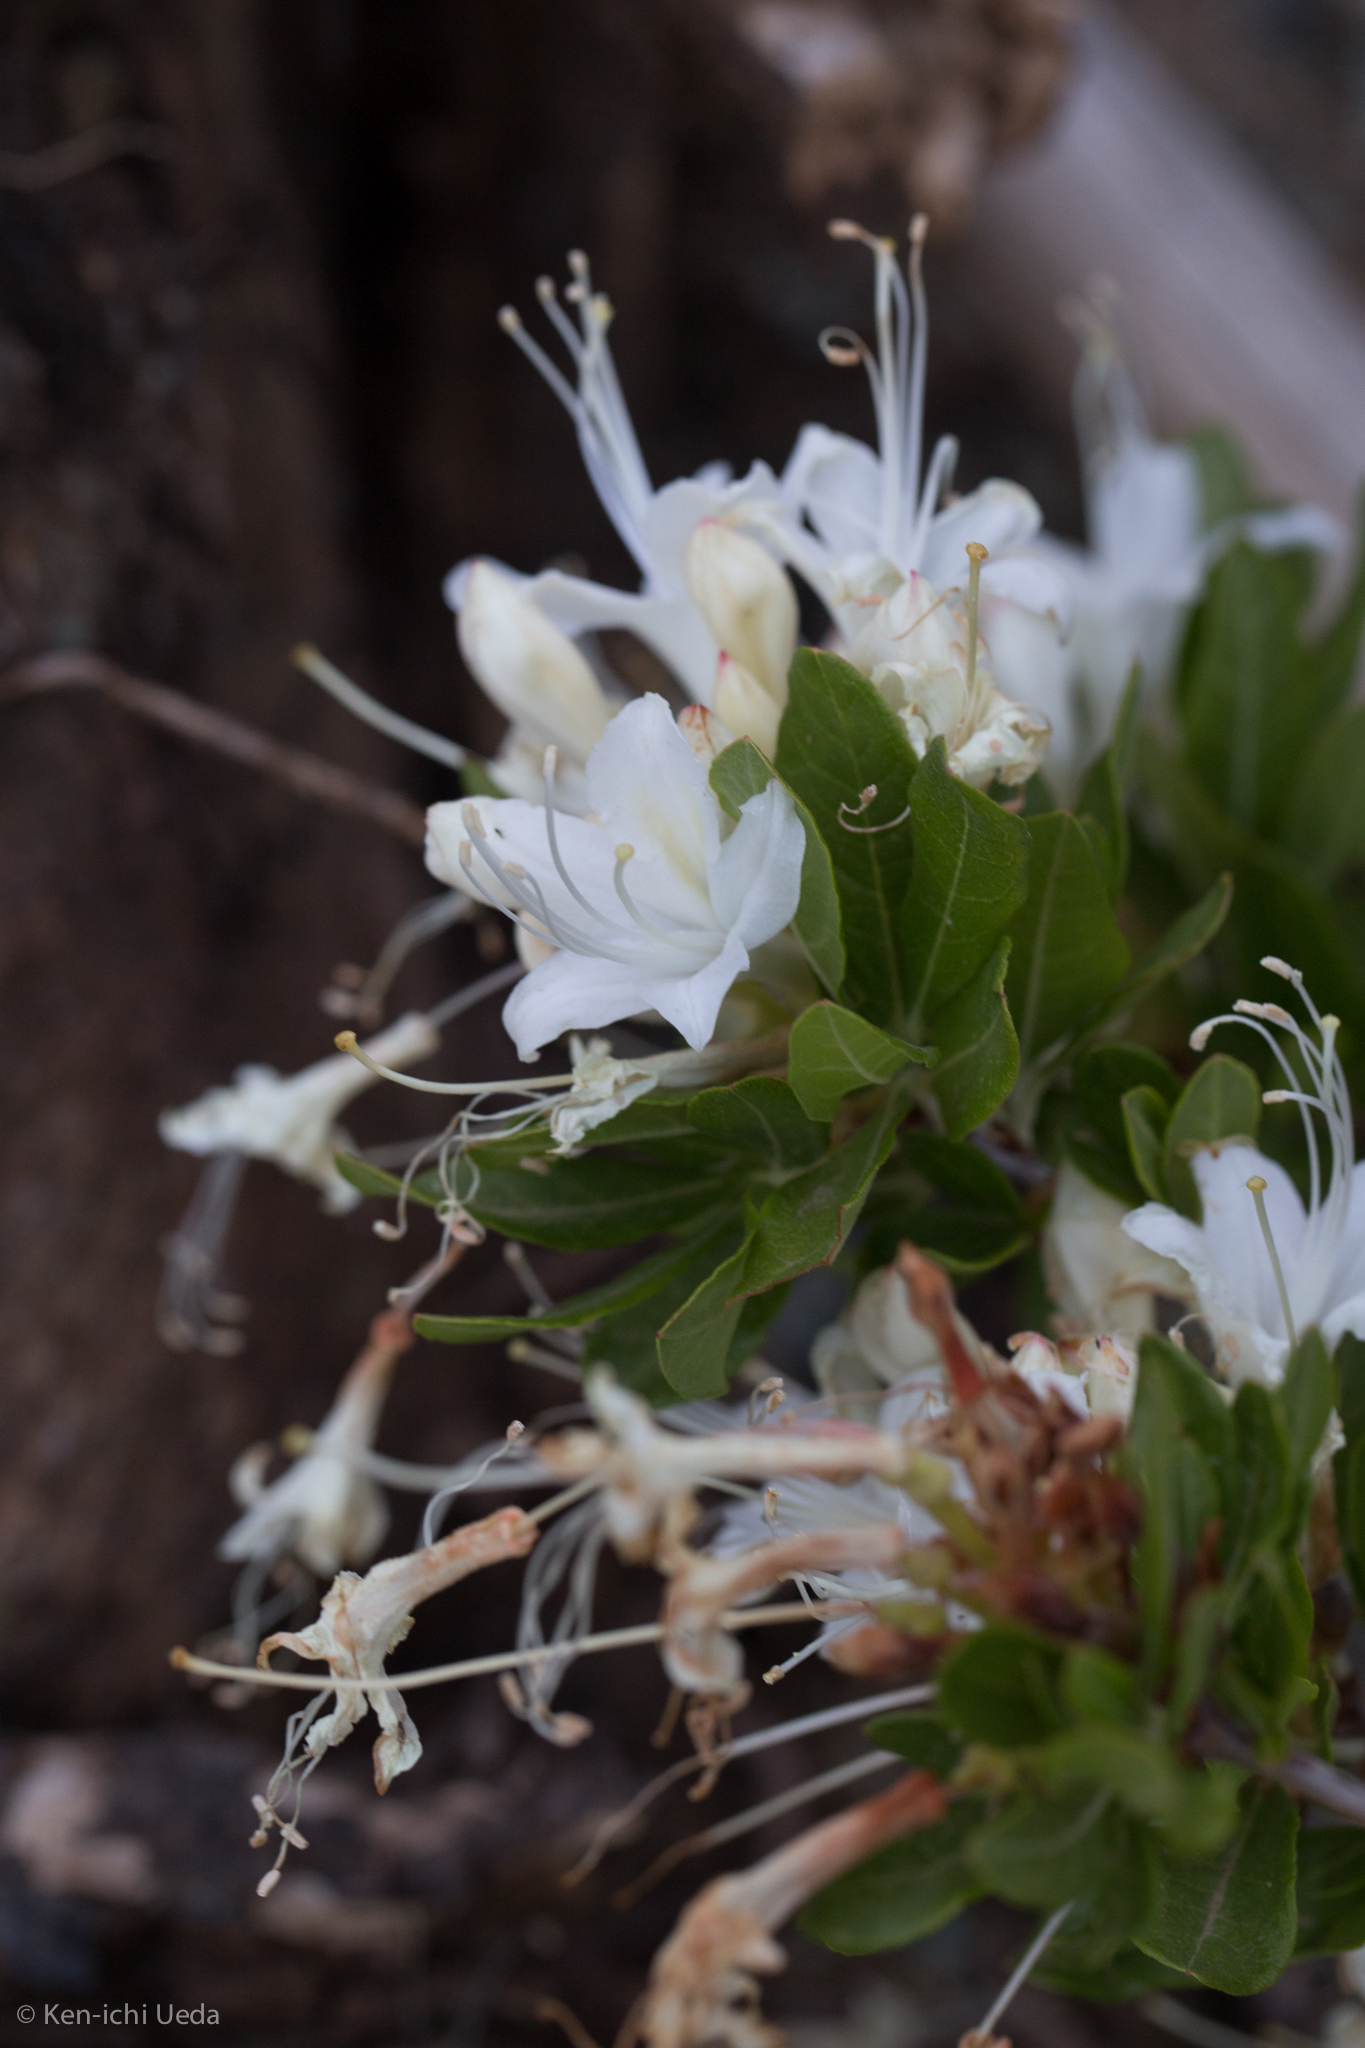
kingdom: Plantae
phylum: Tracheophyta
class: Magnoliopsida
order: Ericales
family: Ericaceae
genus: Rhododendron
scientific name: Rhododendron occidentale
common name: Western azalea
